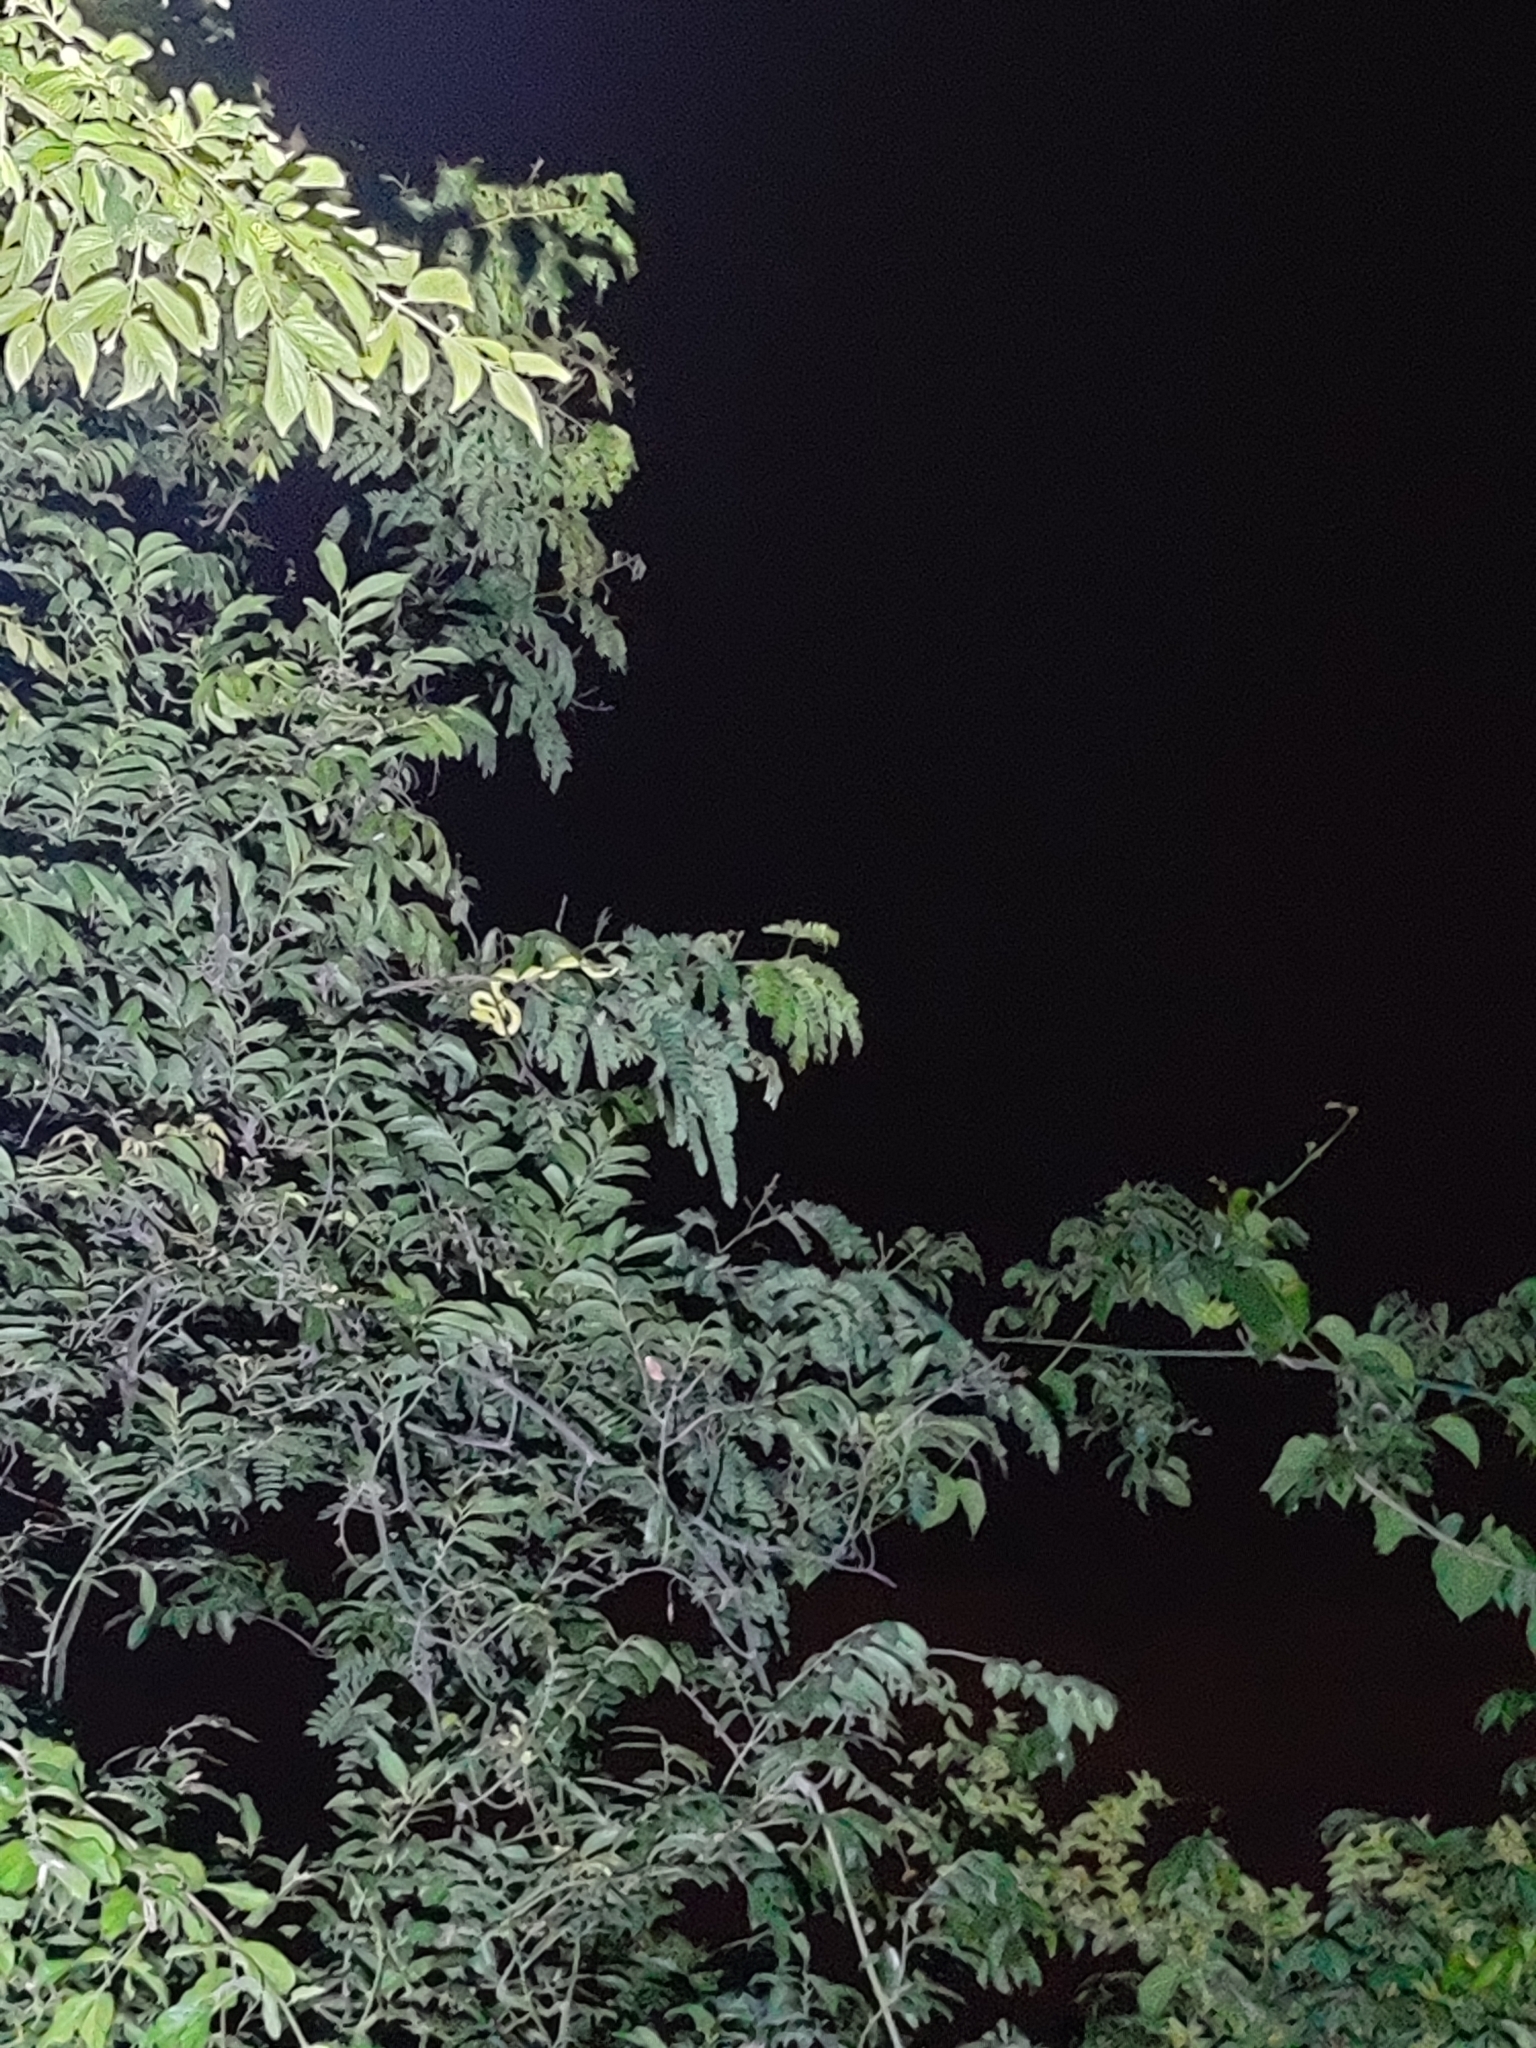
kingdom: Animalia
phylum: Chordata
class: Squamata
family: Viperidae
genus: Craspedocephalus
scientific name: Craspedocephalus gramineus
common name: Common bamboo viper
